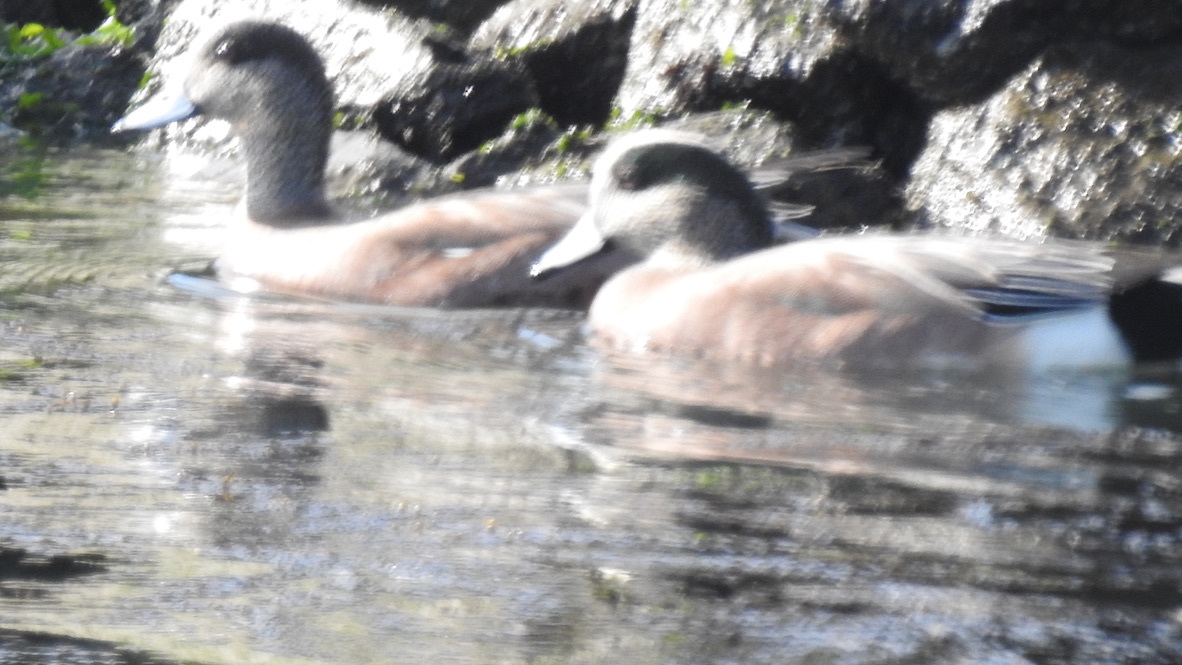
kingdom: Animalia
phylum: Chordata
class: Aves
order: Anseriformes
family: Anatidae
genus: Mareca
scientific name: Mareca americana
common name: American wigeon
